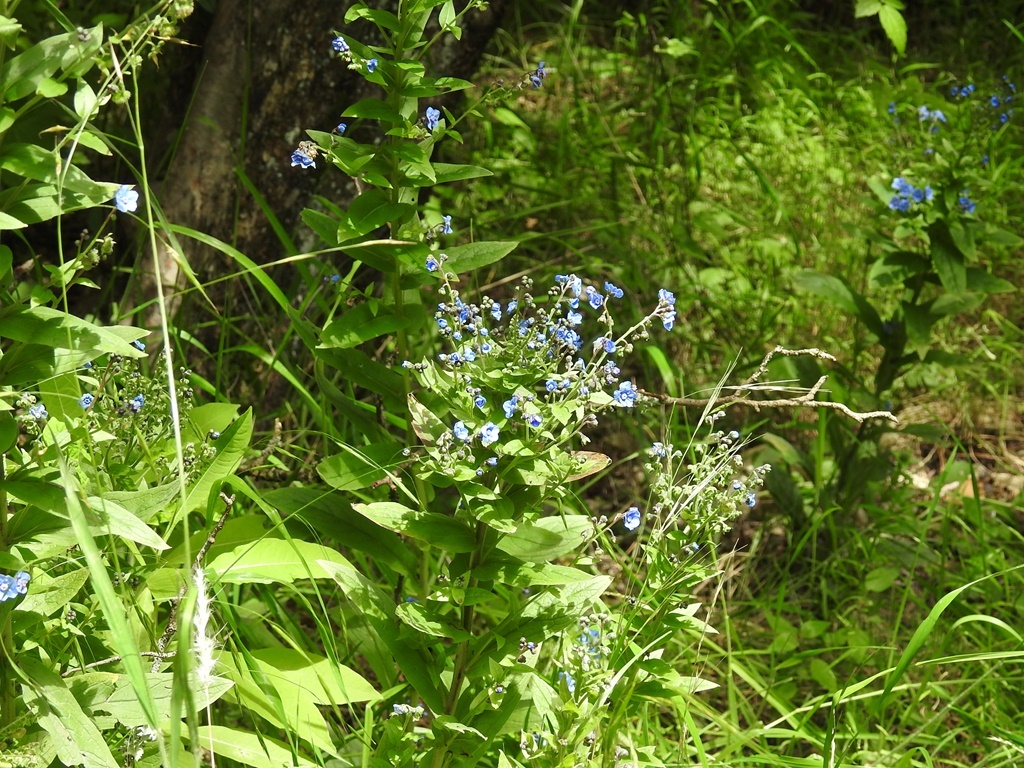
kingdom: Plantae
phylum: Tracheophyta
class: Magnoliopsida
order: Boraginales
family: Boraginaceae
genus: Cynoglossum
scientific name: Cynoglossum amabile
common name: Chinese hound's tongue
